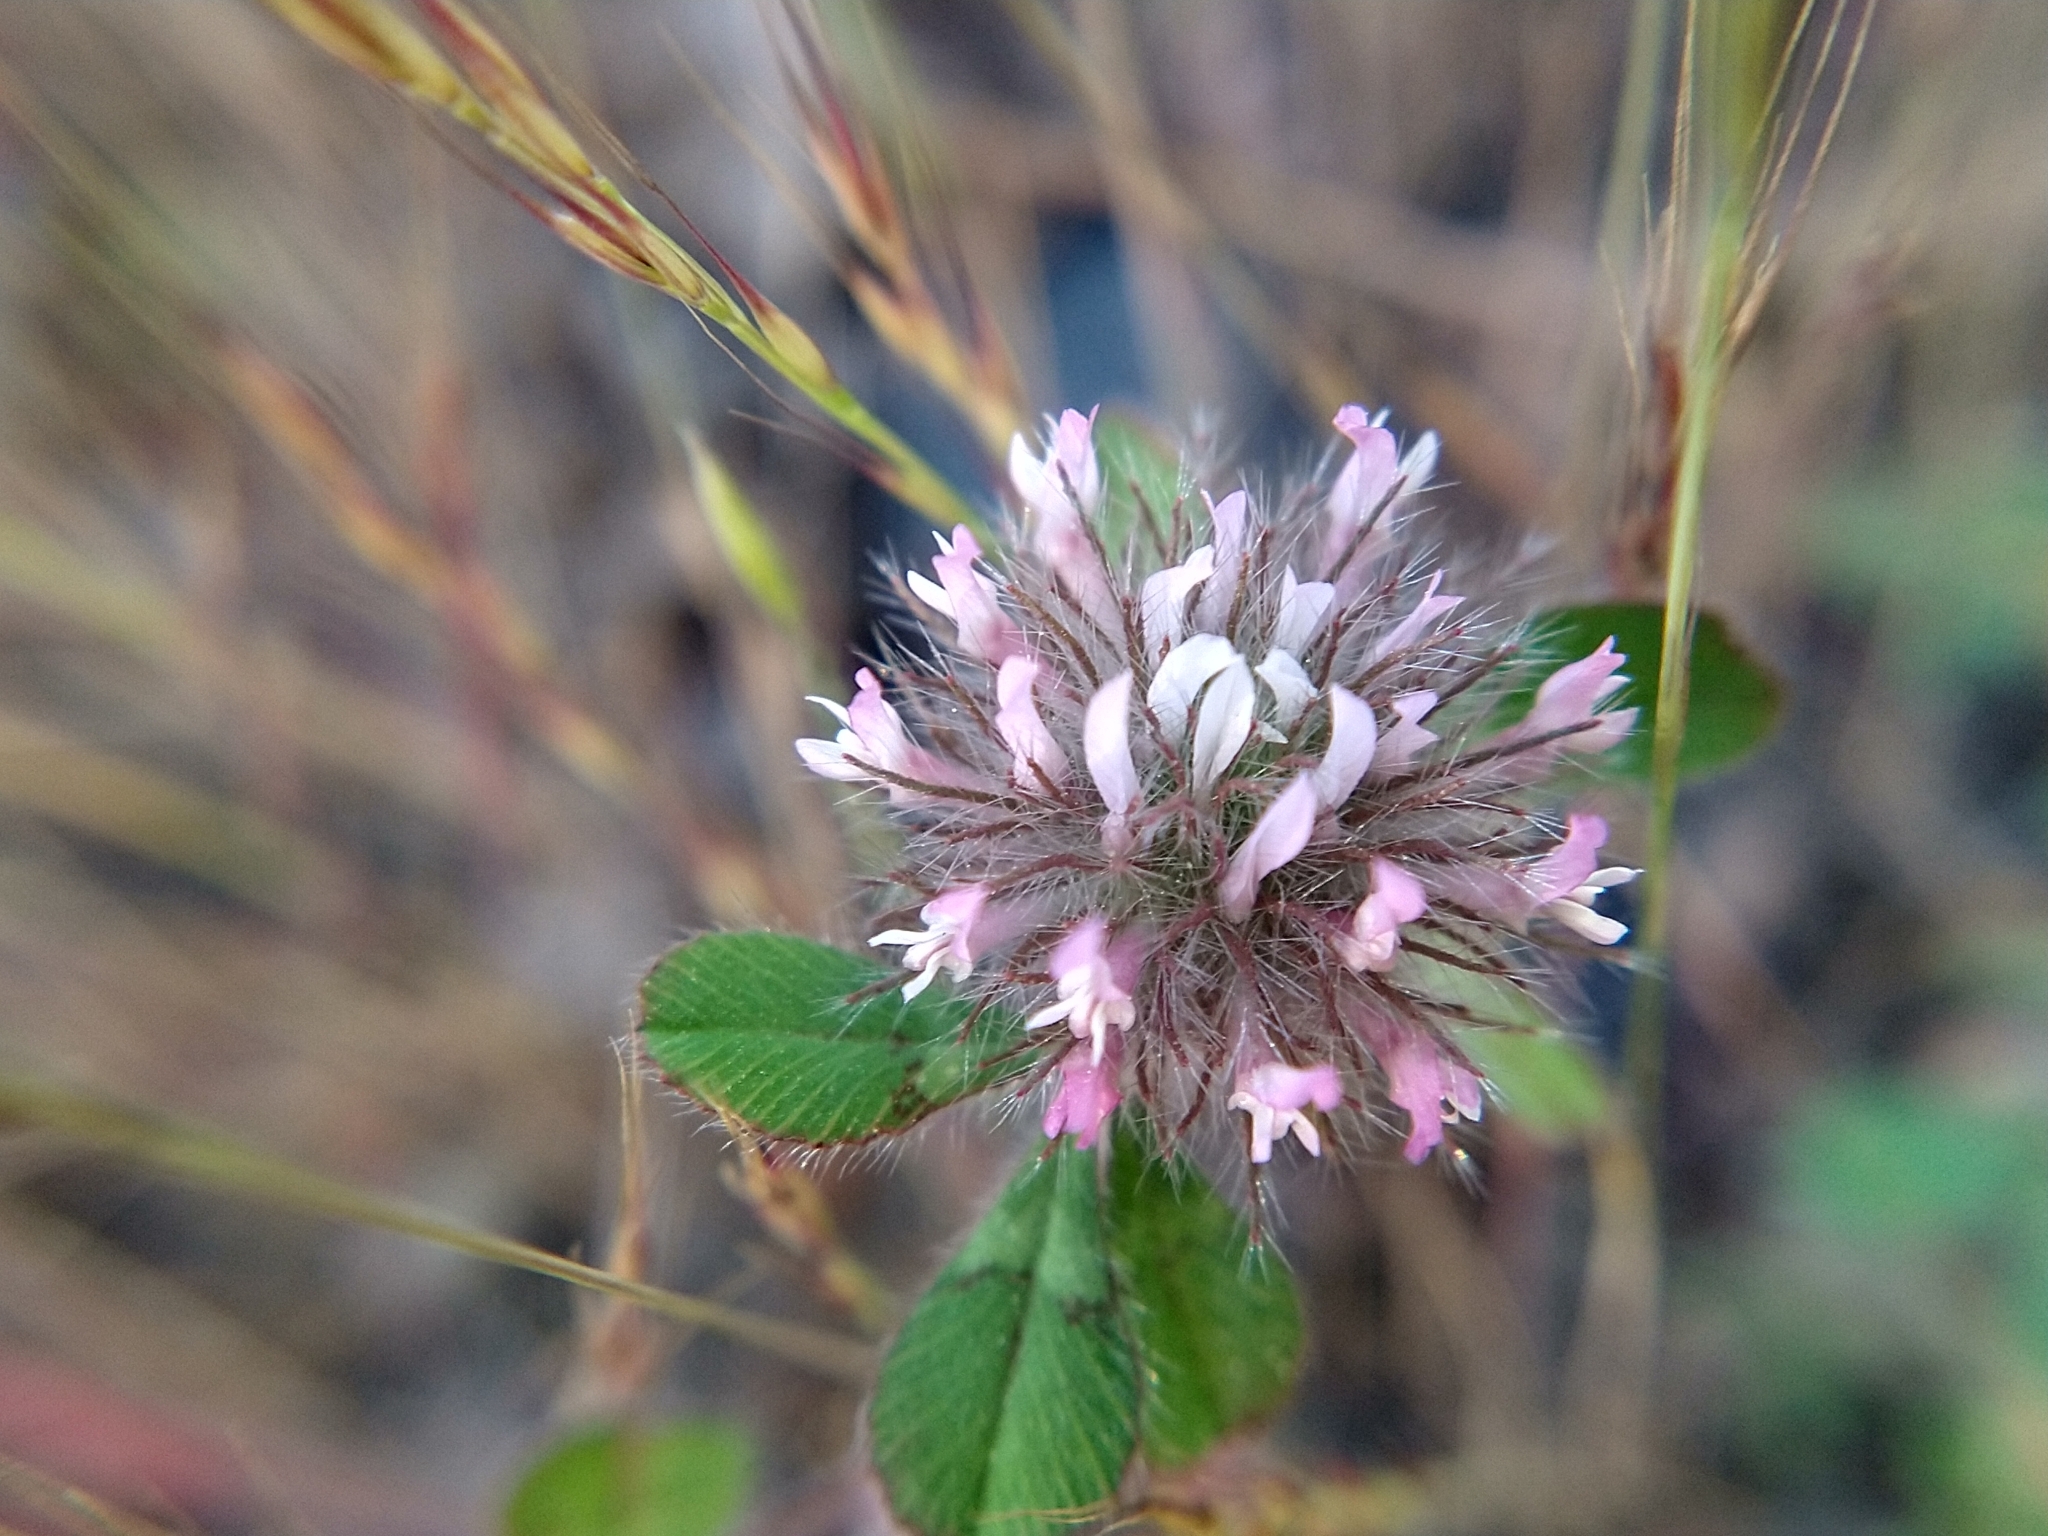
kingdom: Plantae
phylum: Tracheophyta
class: Magnoliopsida
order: Fabales
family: Fabaceae
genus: Trifolium
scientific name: Trifolium hirtum
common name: Rose clover
